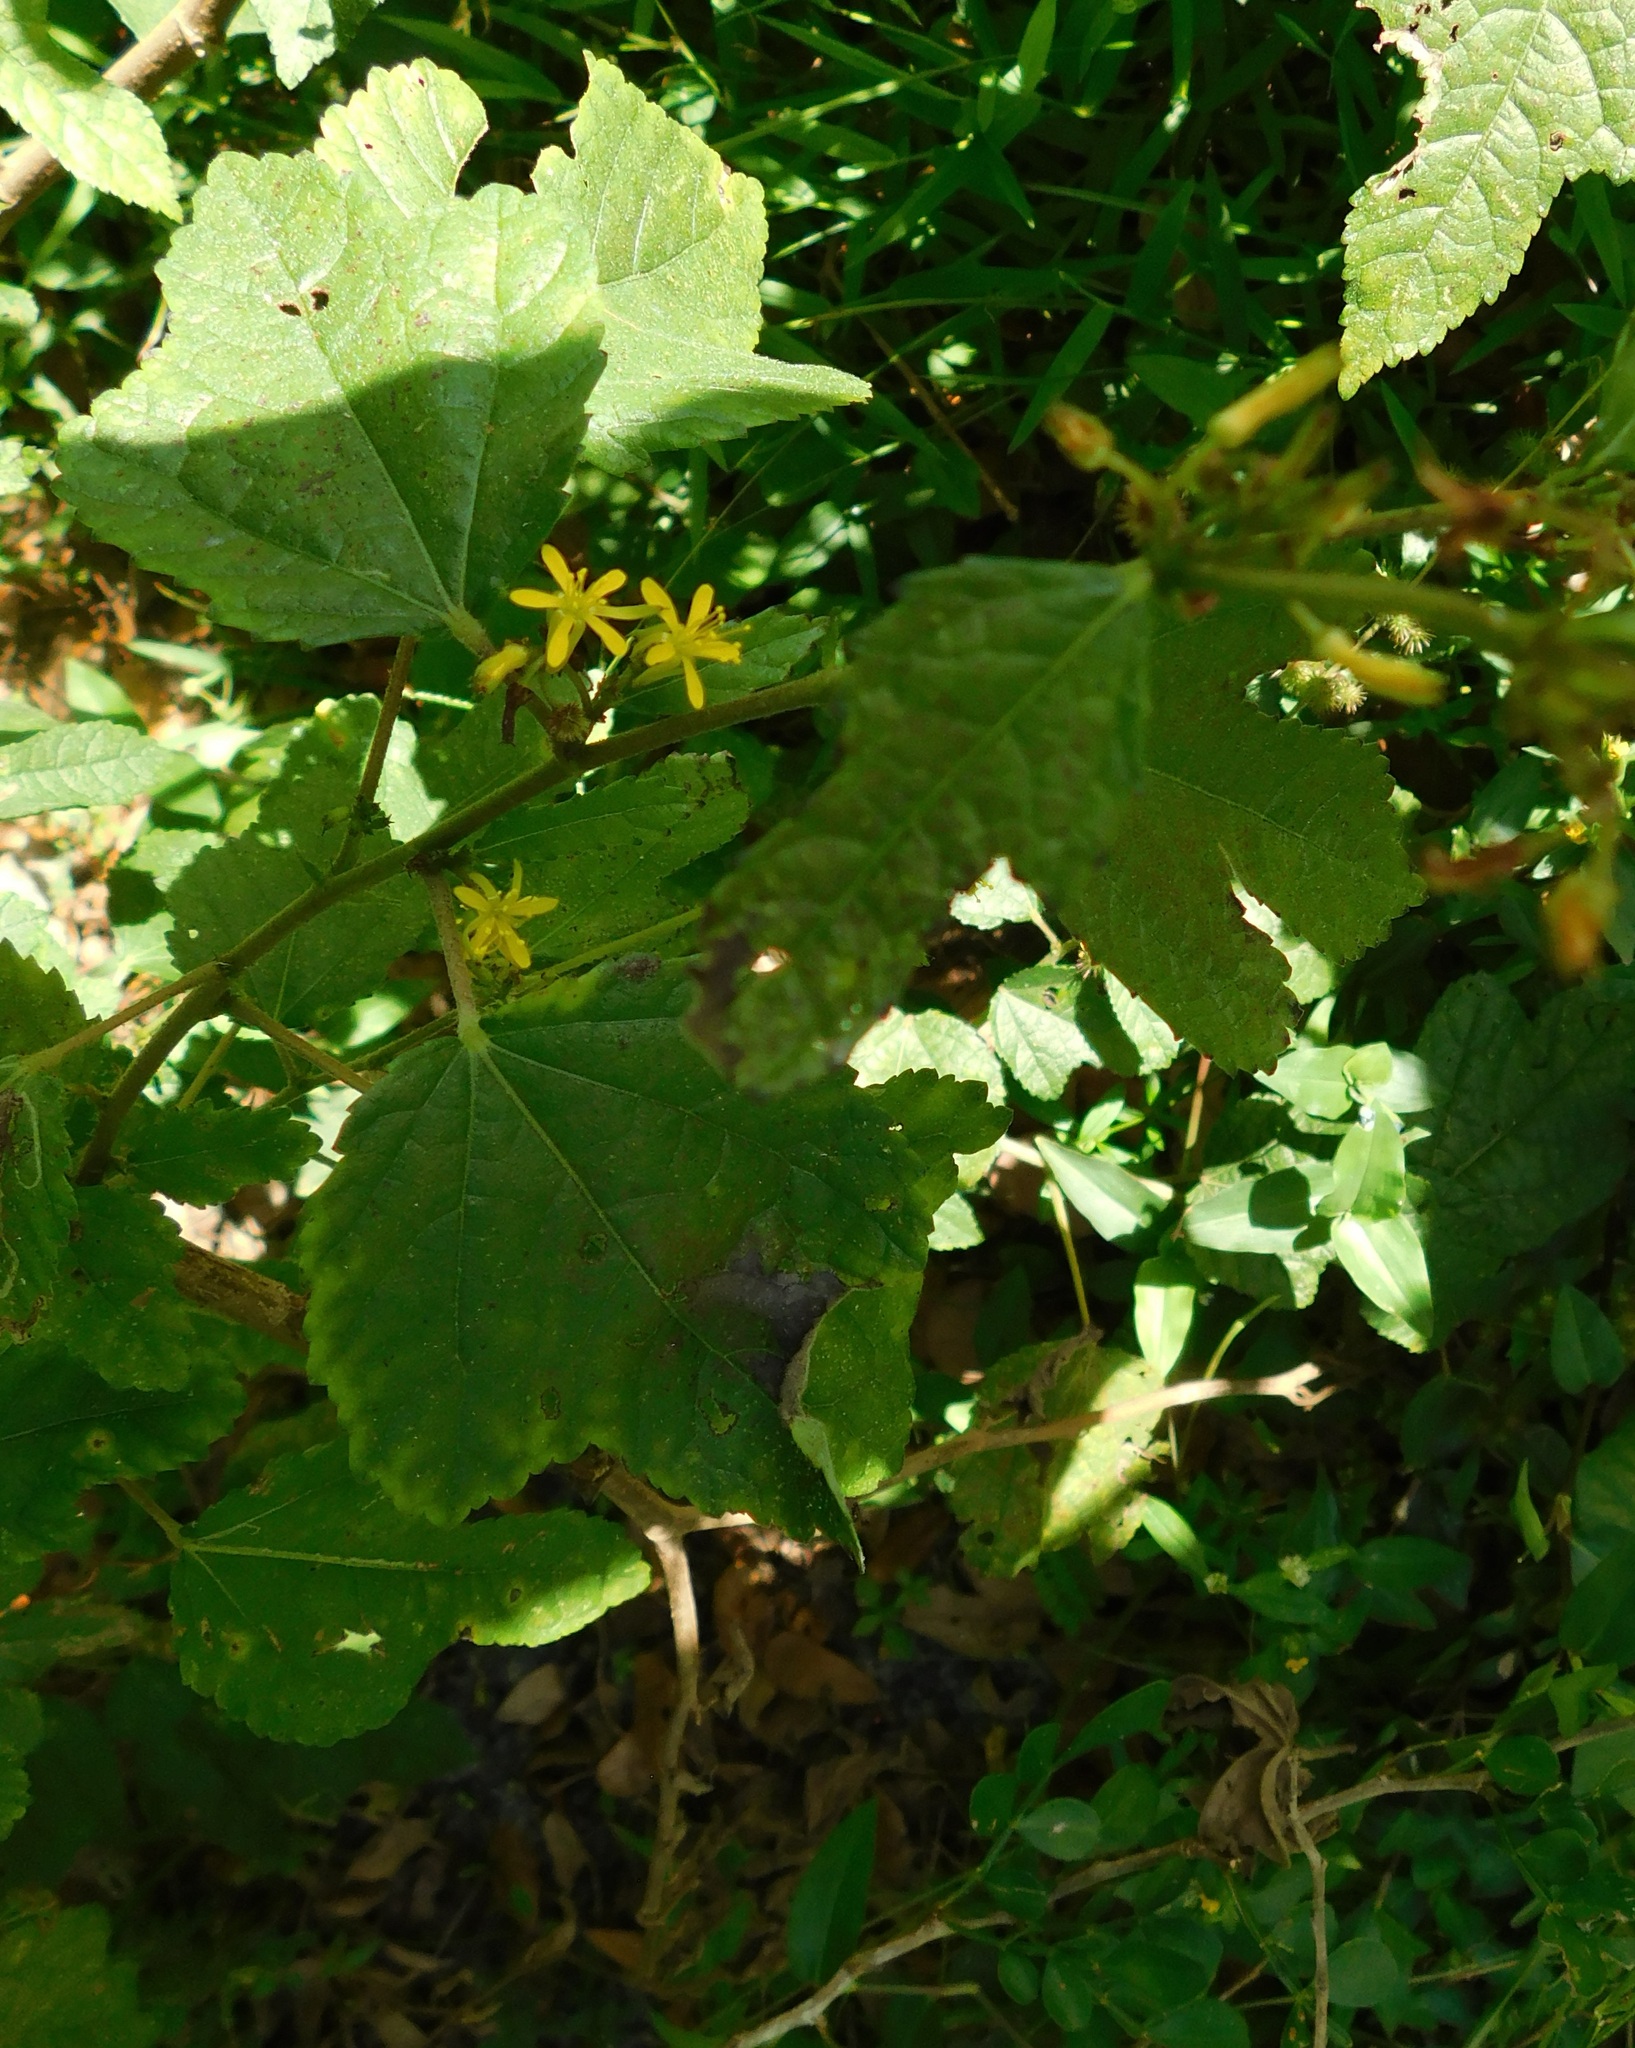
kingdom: Plantae
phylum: Tracheophyta
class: Magnoliopsida
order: Malvales
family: Malvaceae
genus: Triumfetta
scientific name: Triumfetta semitriloba
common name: Sacramento burbark
